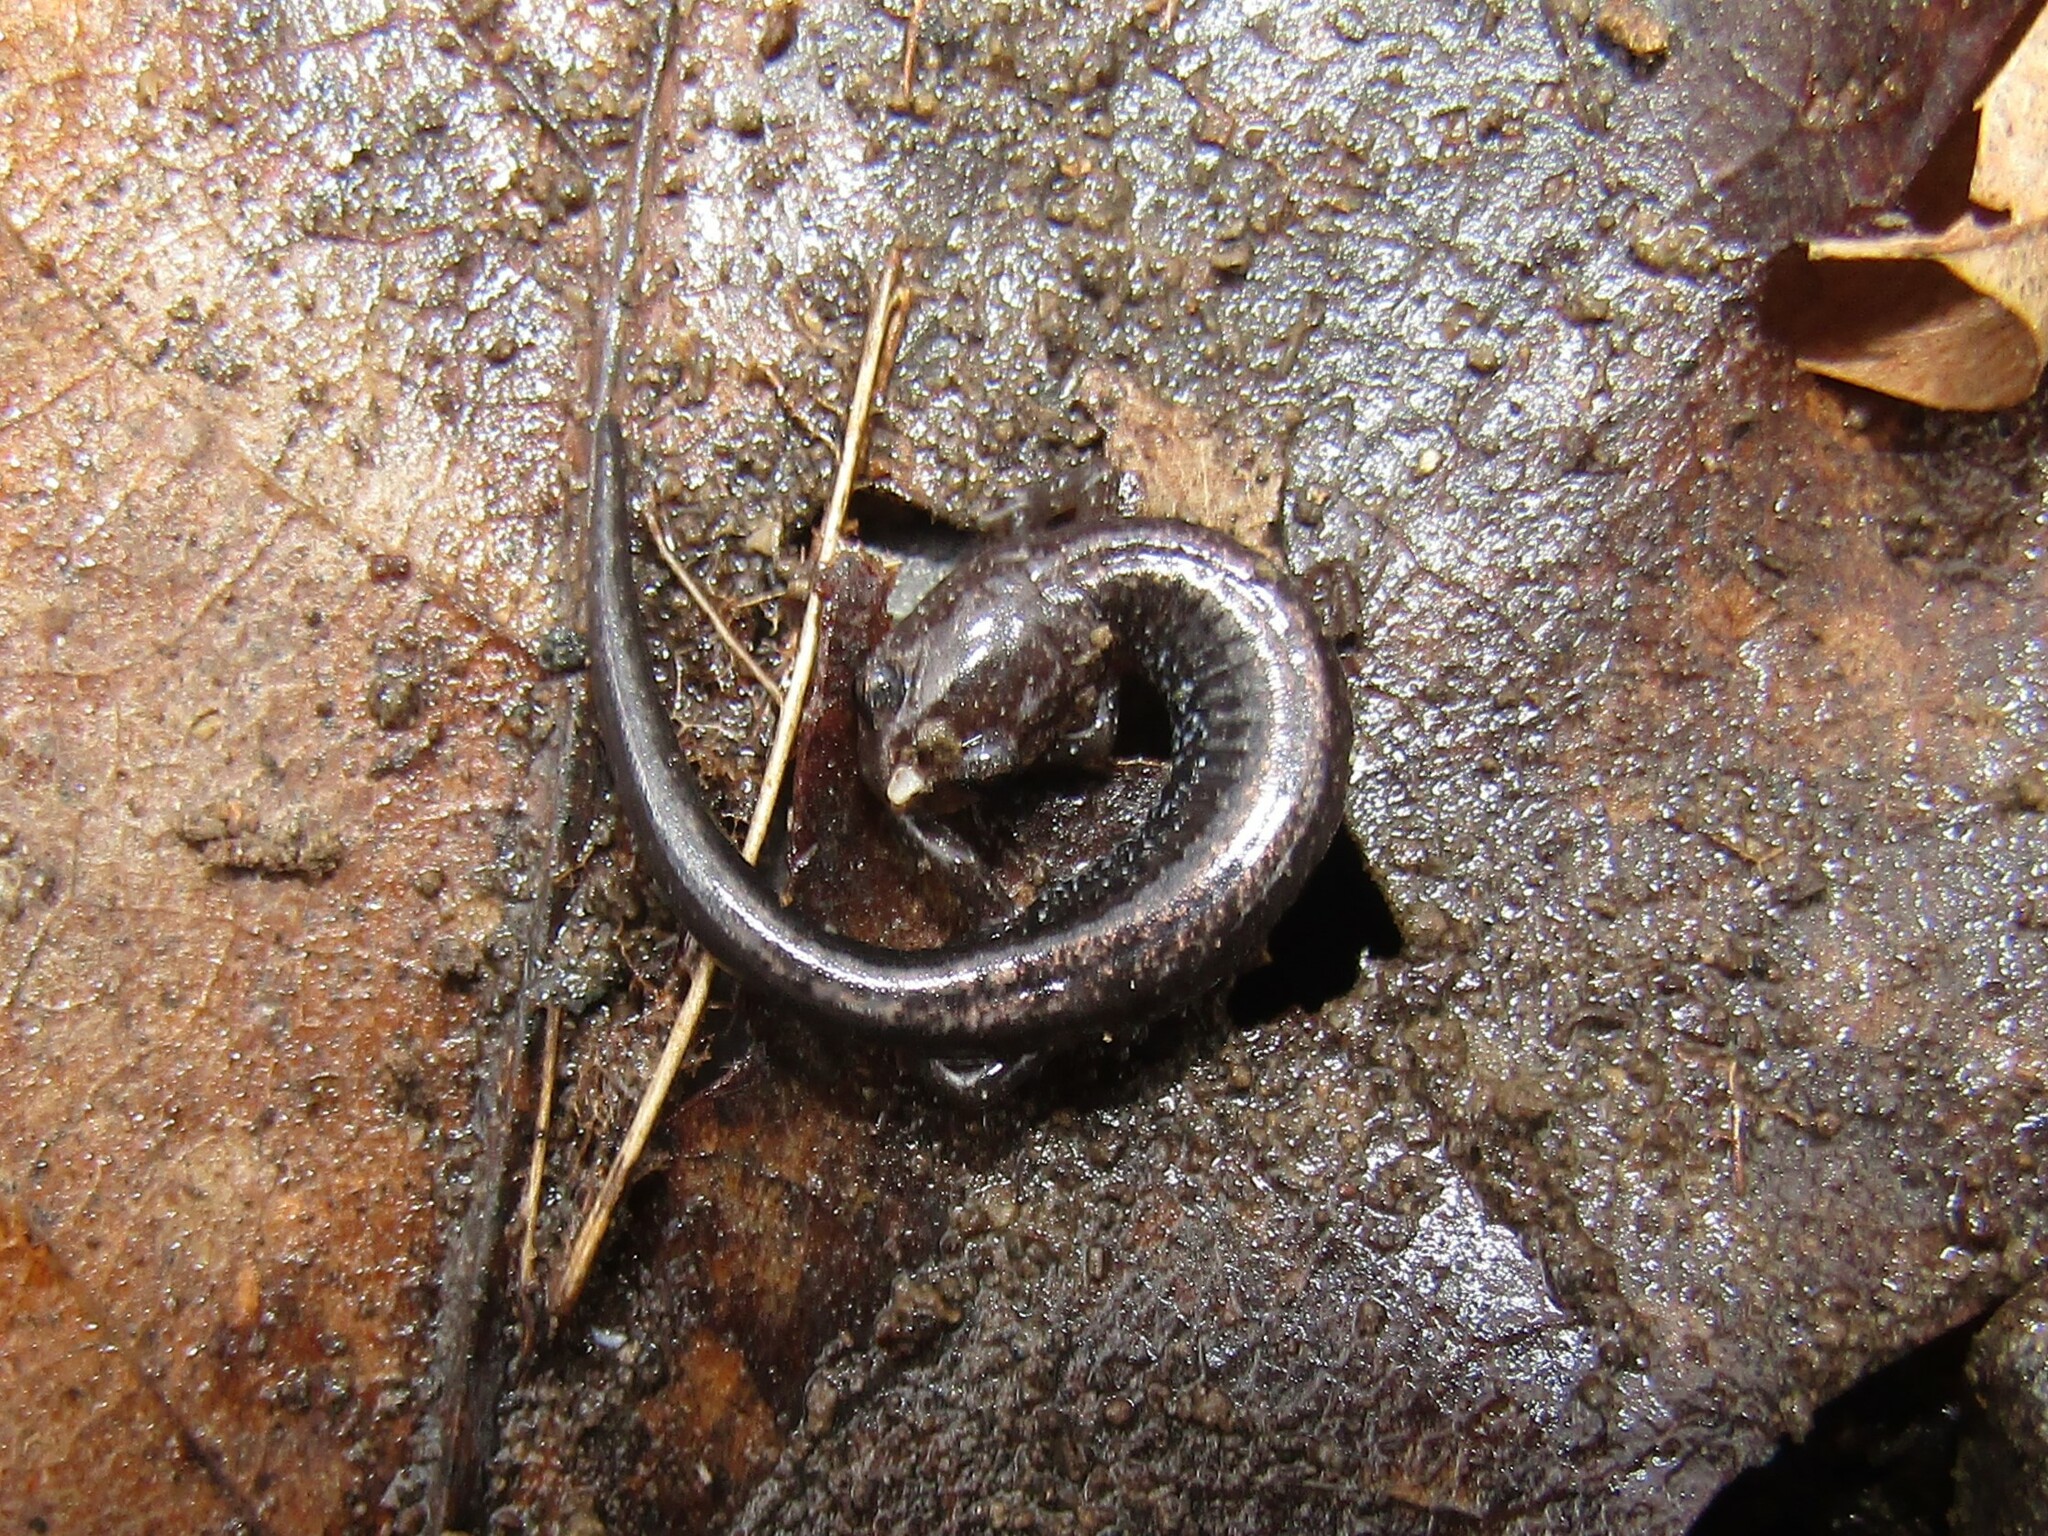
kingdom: Animalia
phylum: Chordata
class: Amphibia
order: Caudata
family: Plethodontidae
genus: Plethodon
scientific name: Plethodon cinereus
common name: Redback salamander
